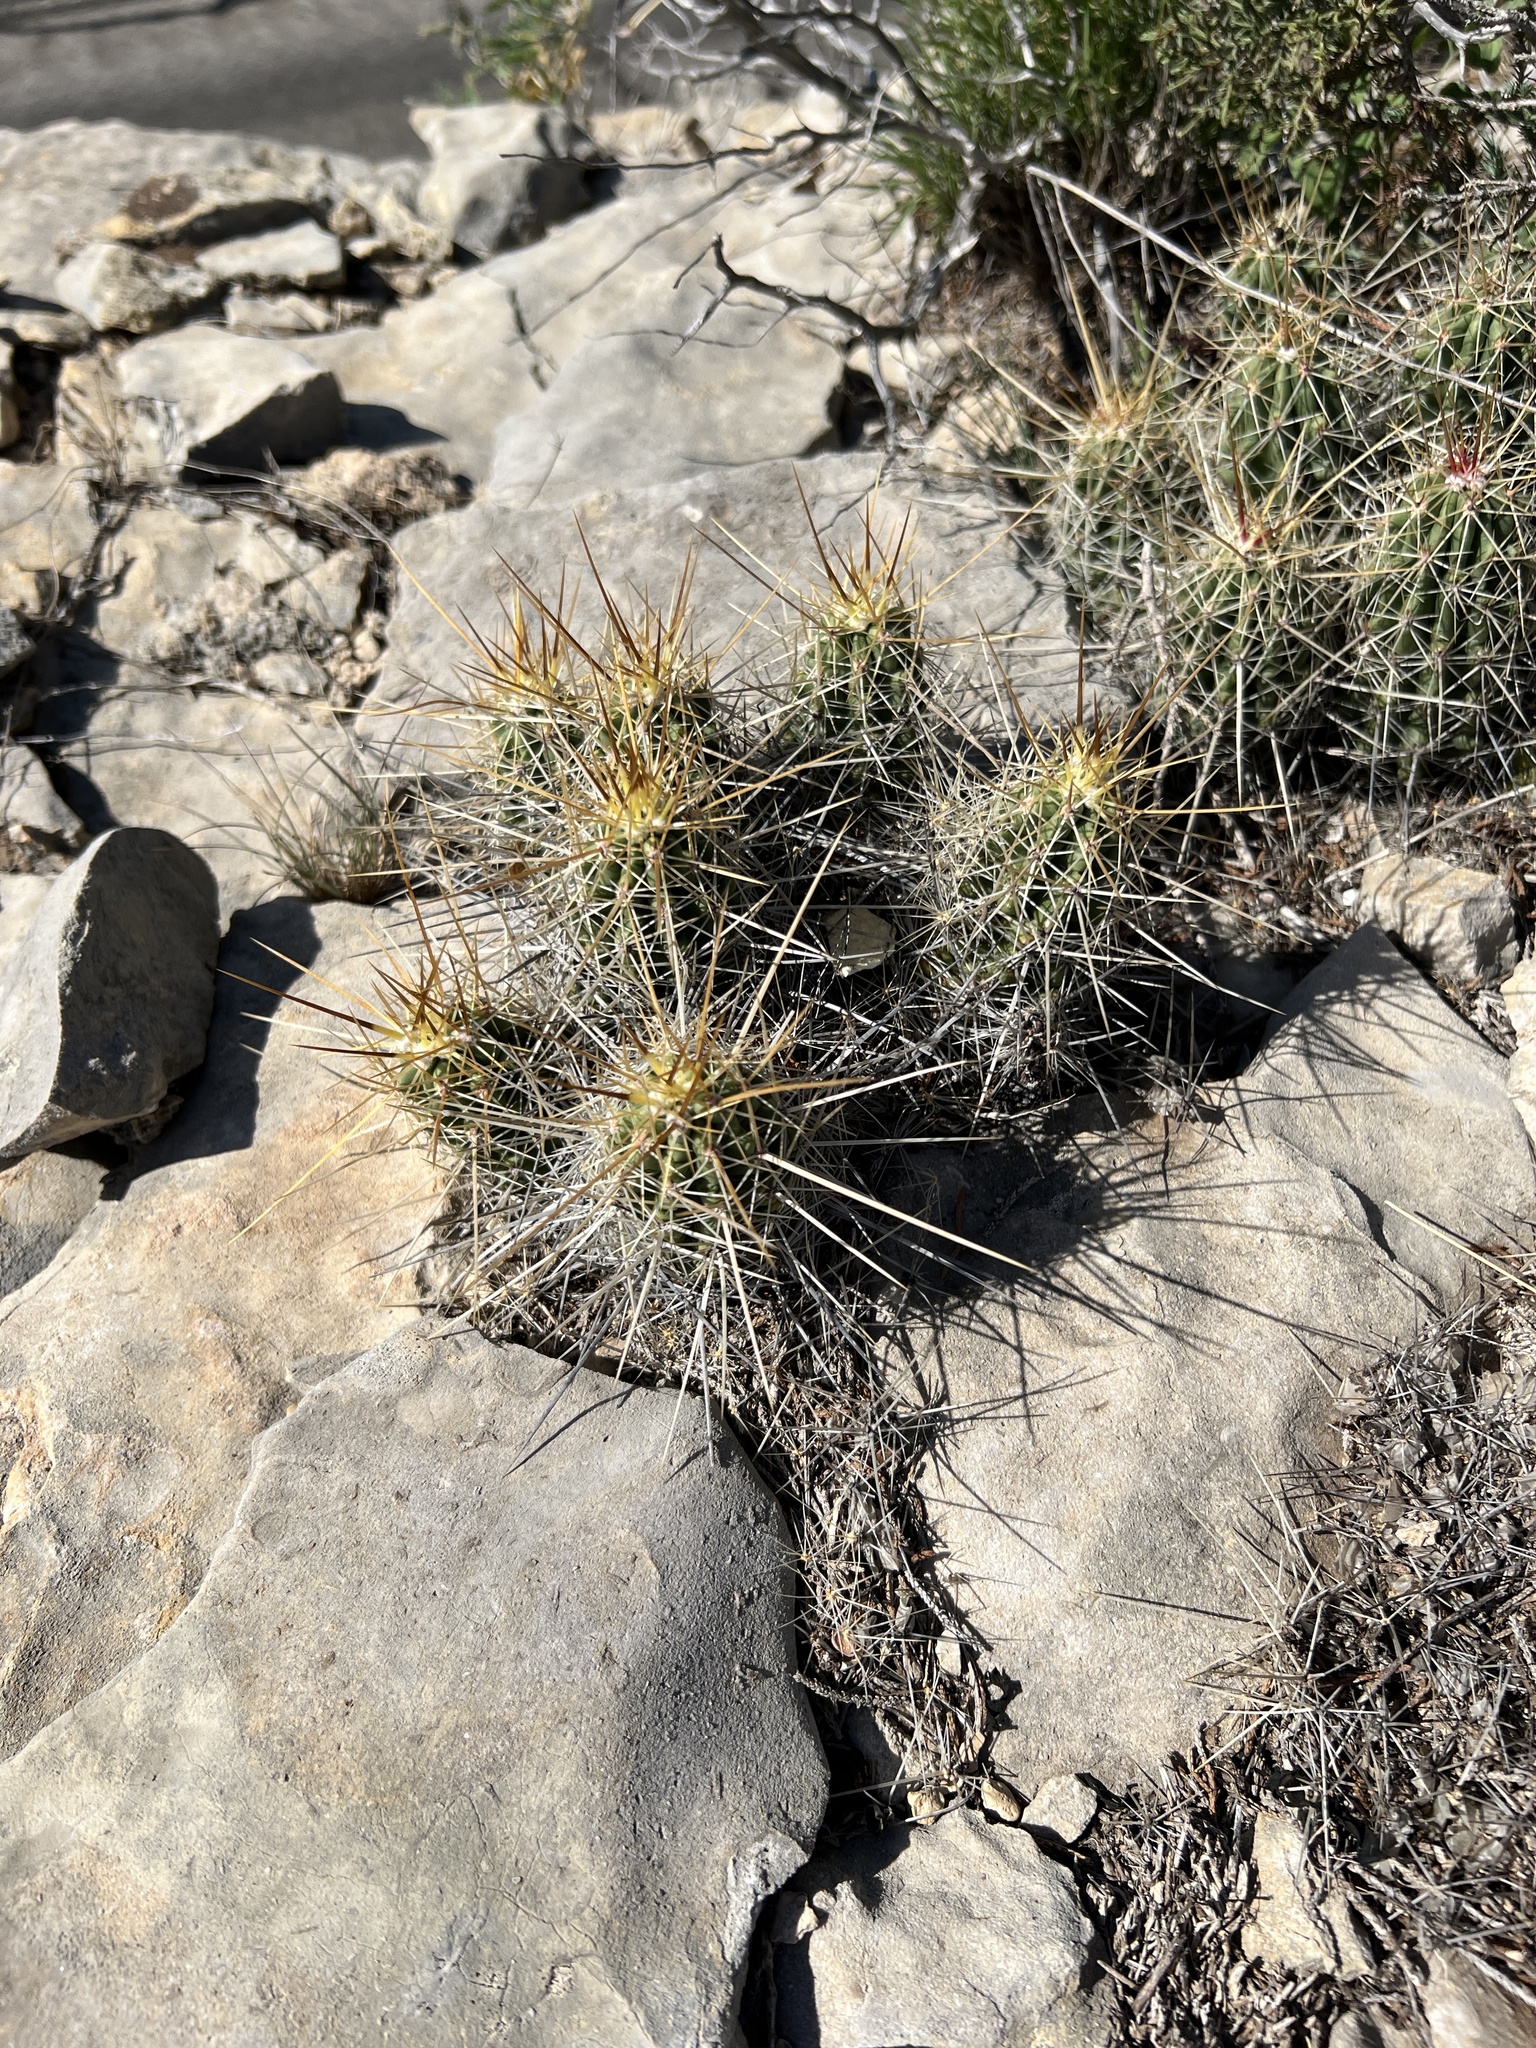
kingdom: Plantae
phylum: Tracheophyta
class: Magnoliopsida
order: Caryophyllales
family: Cactaceae
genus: Echinocereus
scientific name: Echinocereus enneacanthus
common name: Pitaya
